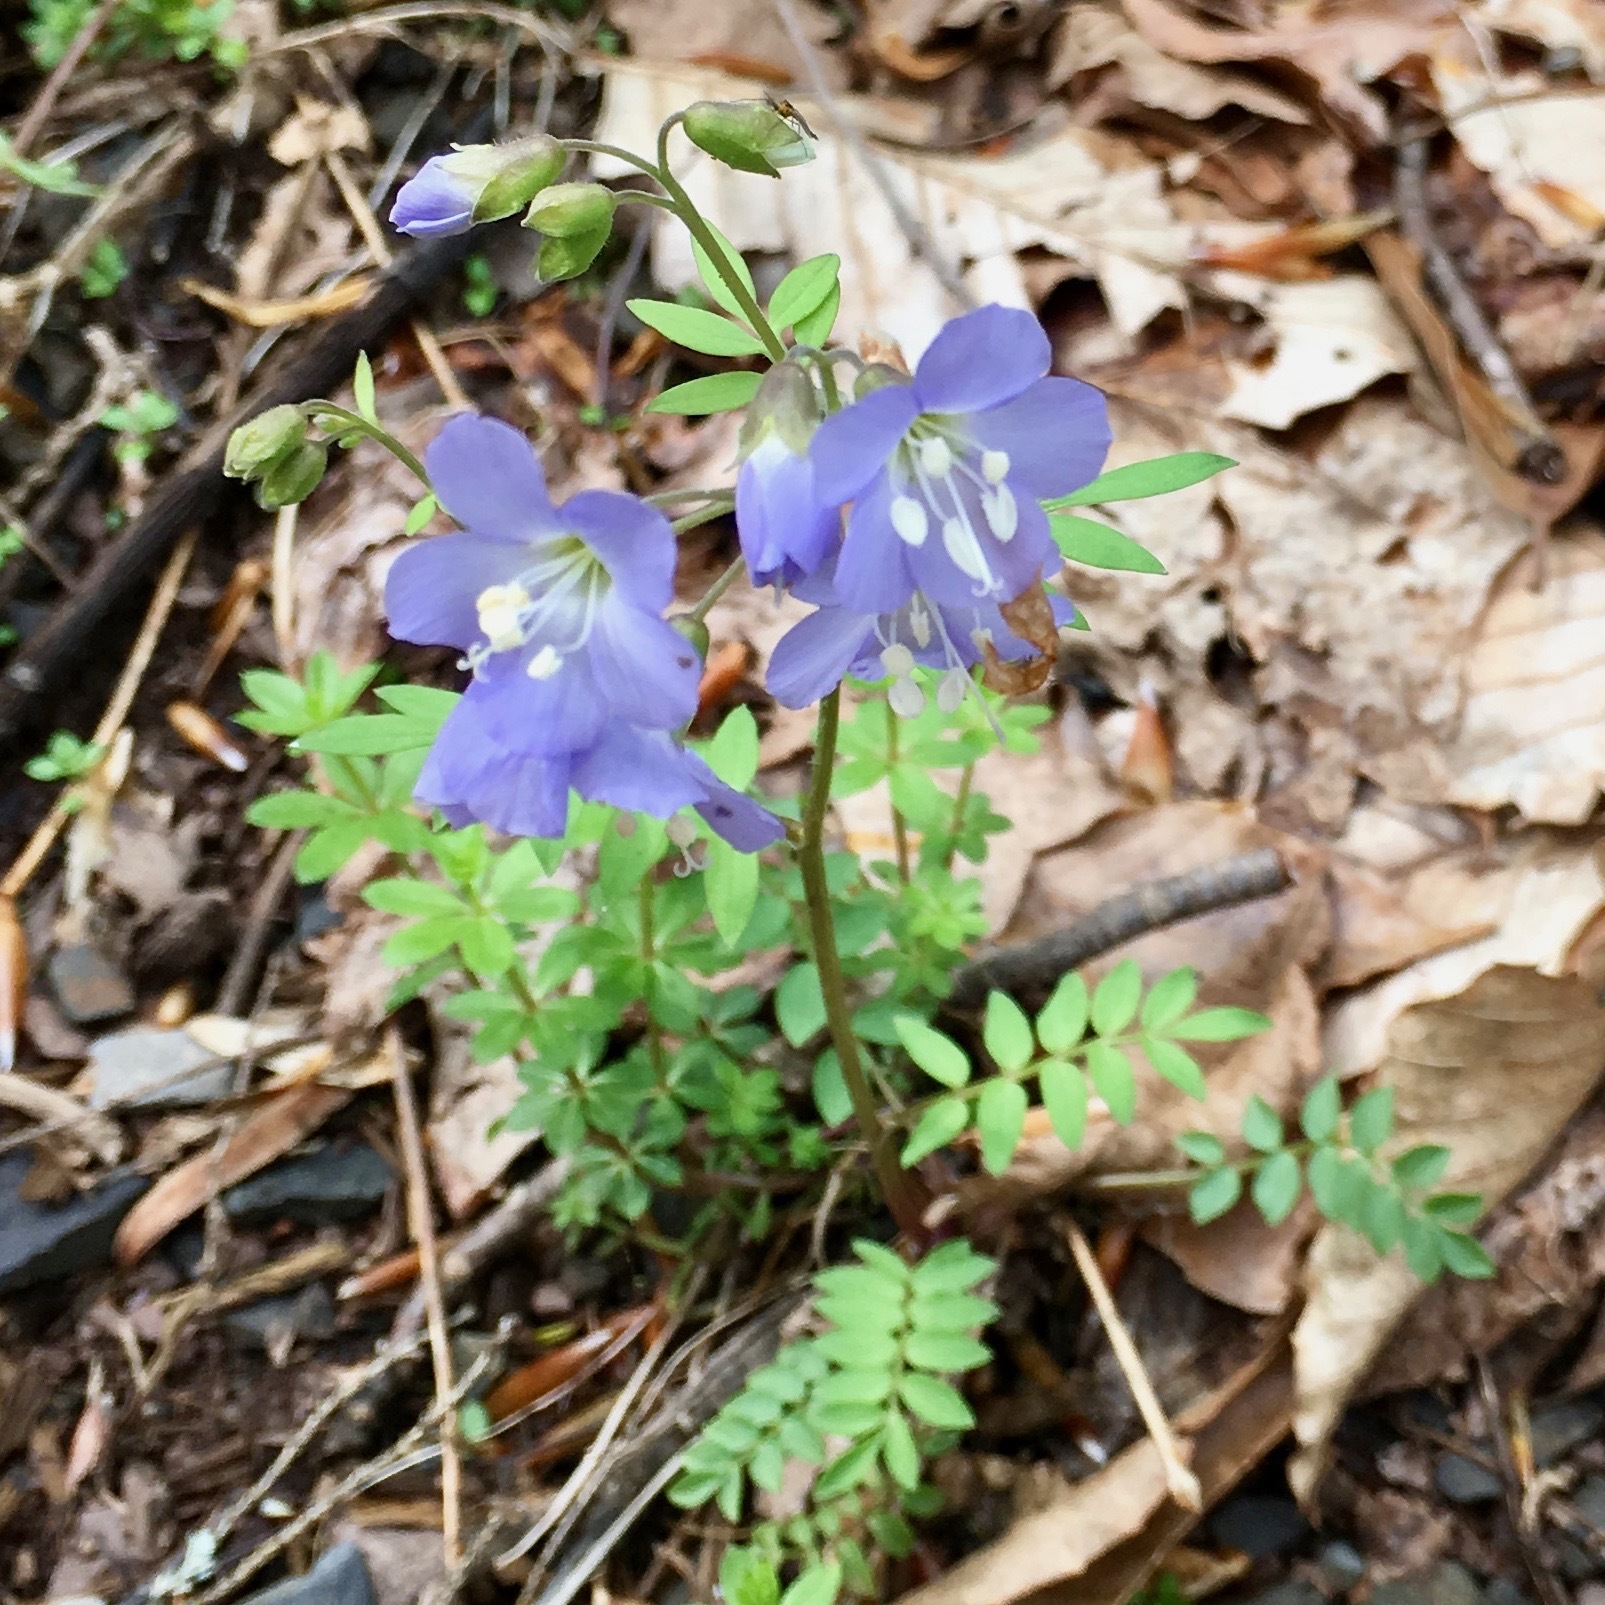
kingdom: Plantae
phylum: Tracheophyta
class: Magnoliopsida
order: Ericales
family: Polemoniaceae
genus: Polemonium
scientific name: Polemonium reptans
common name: Creeping jacob's-ladder
